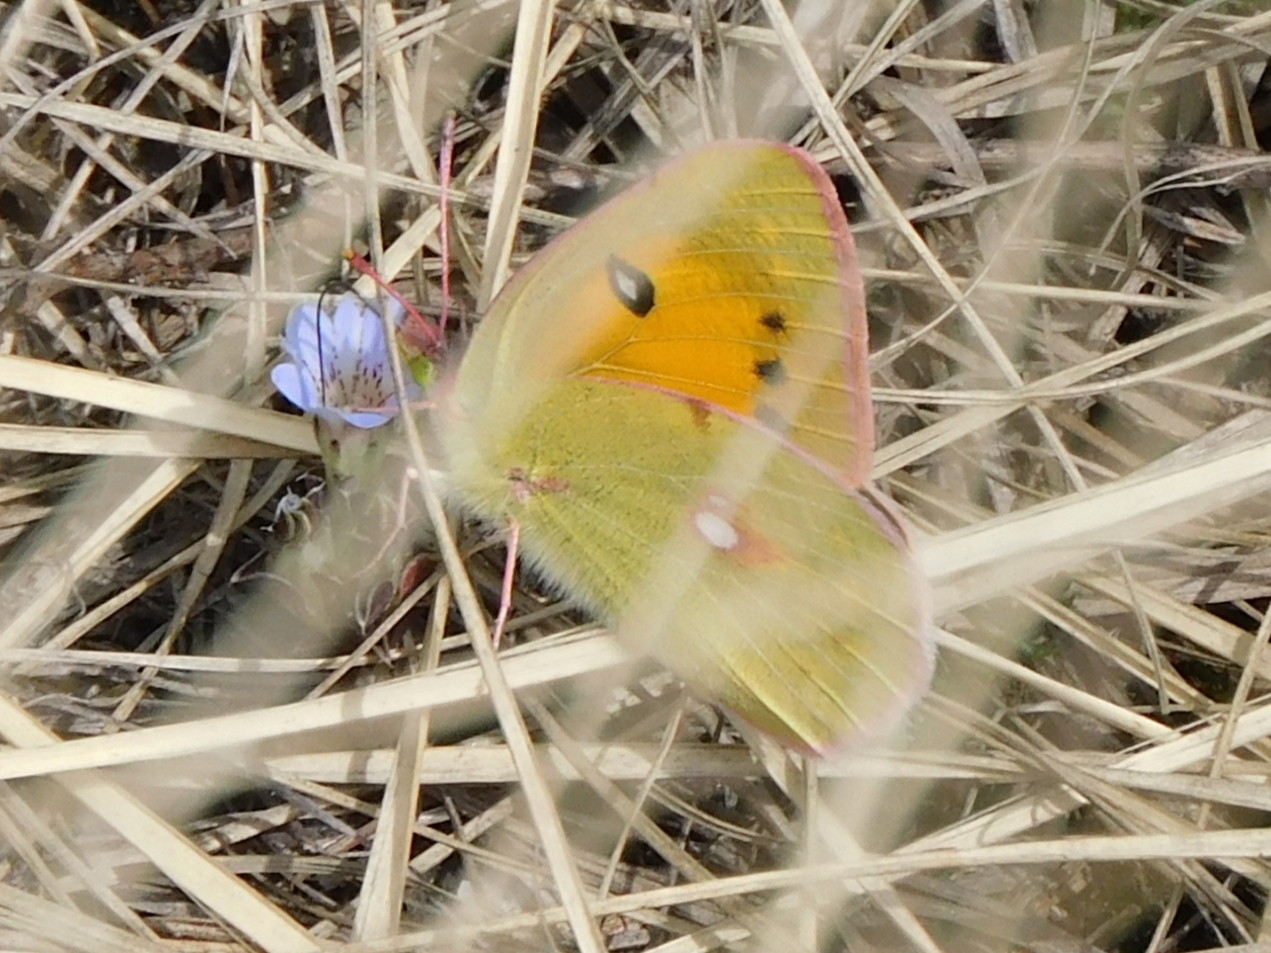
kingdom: Animalia
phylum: Arthropoda
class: Insecta
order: Lepidoptera
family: Pieridae
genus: Colias
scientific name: Colias fieldii
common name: Dark clouded yellow
